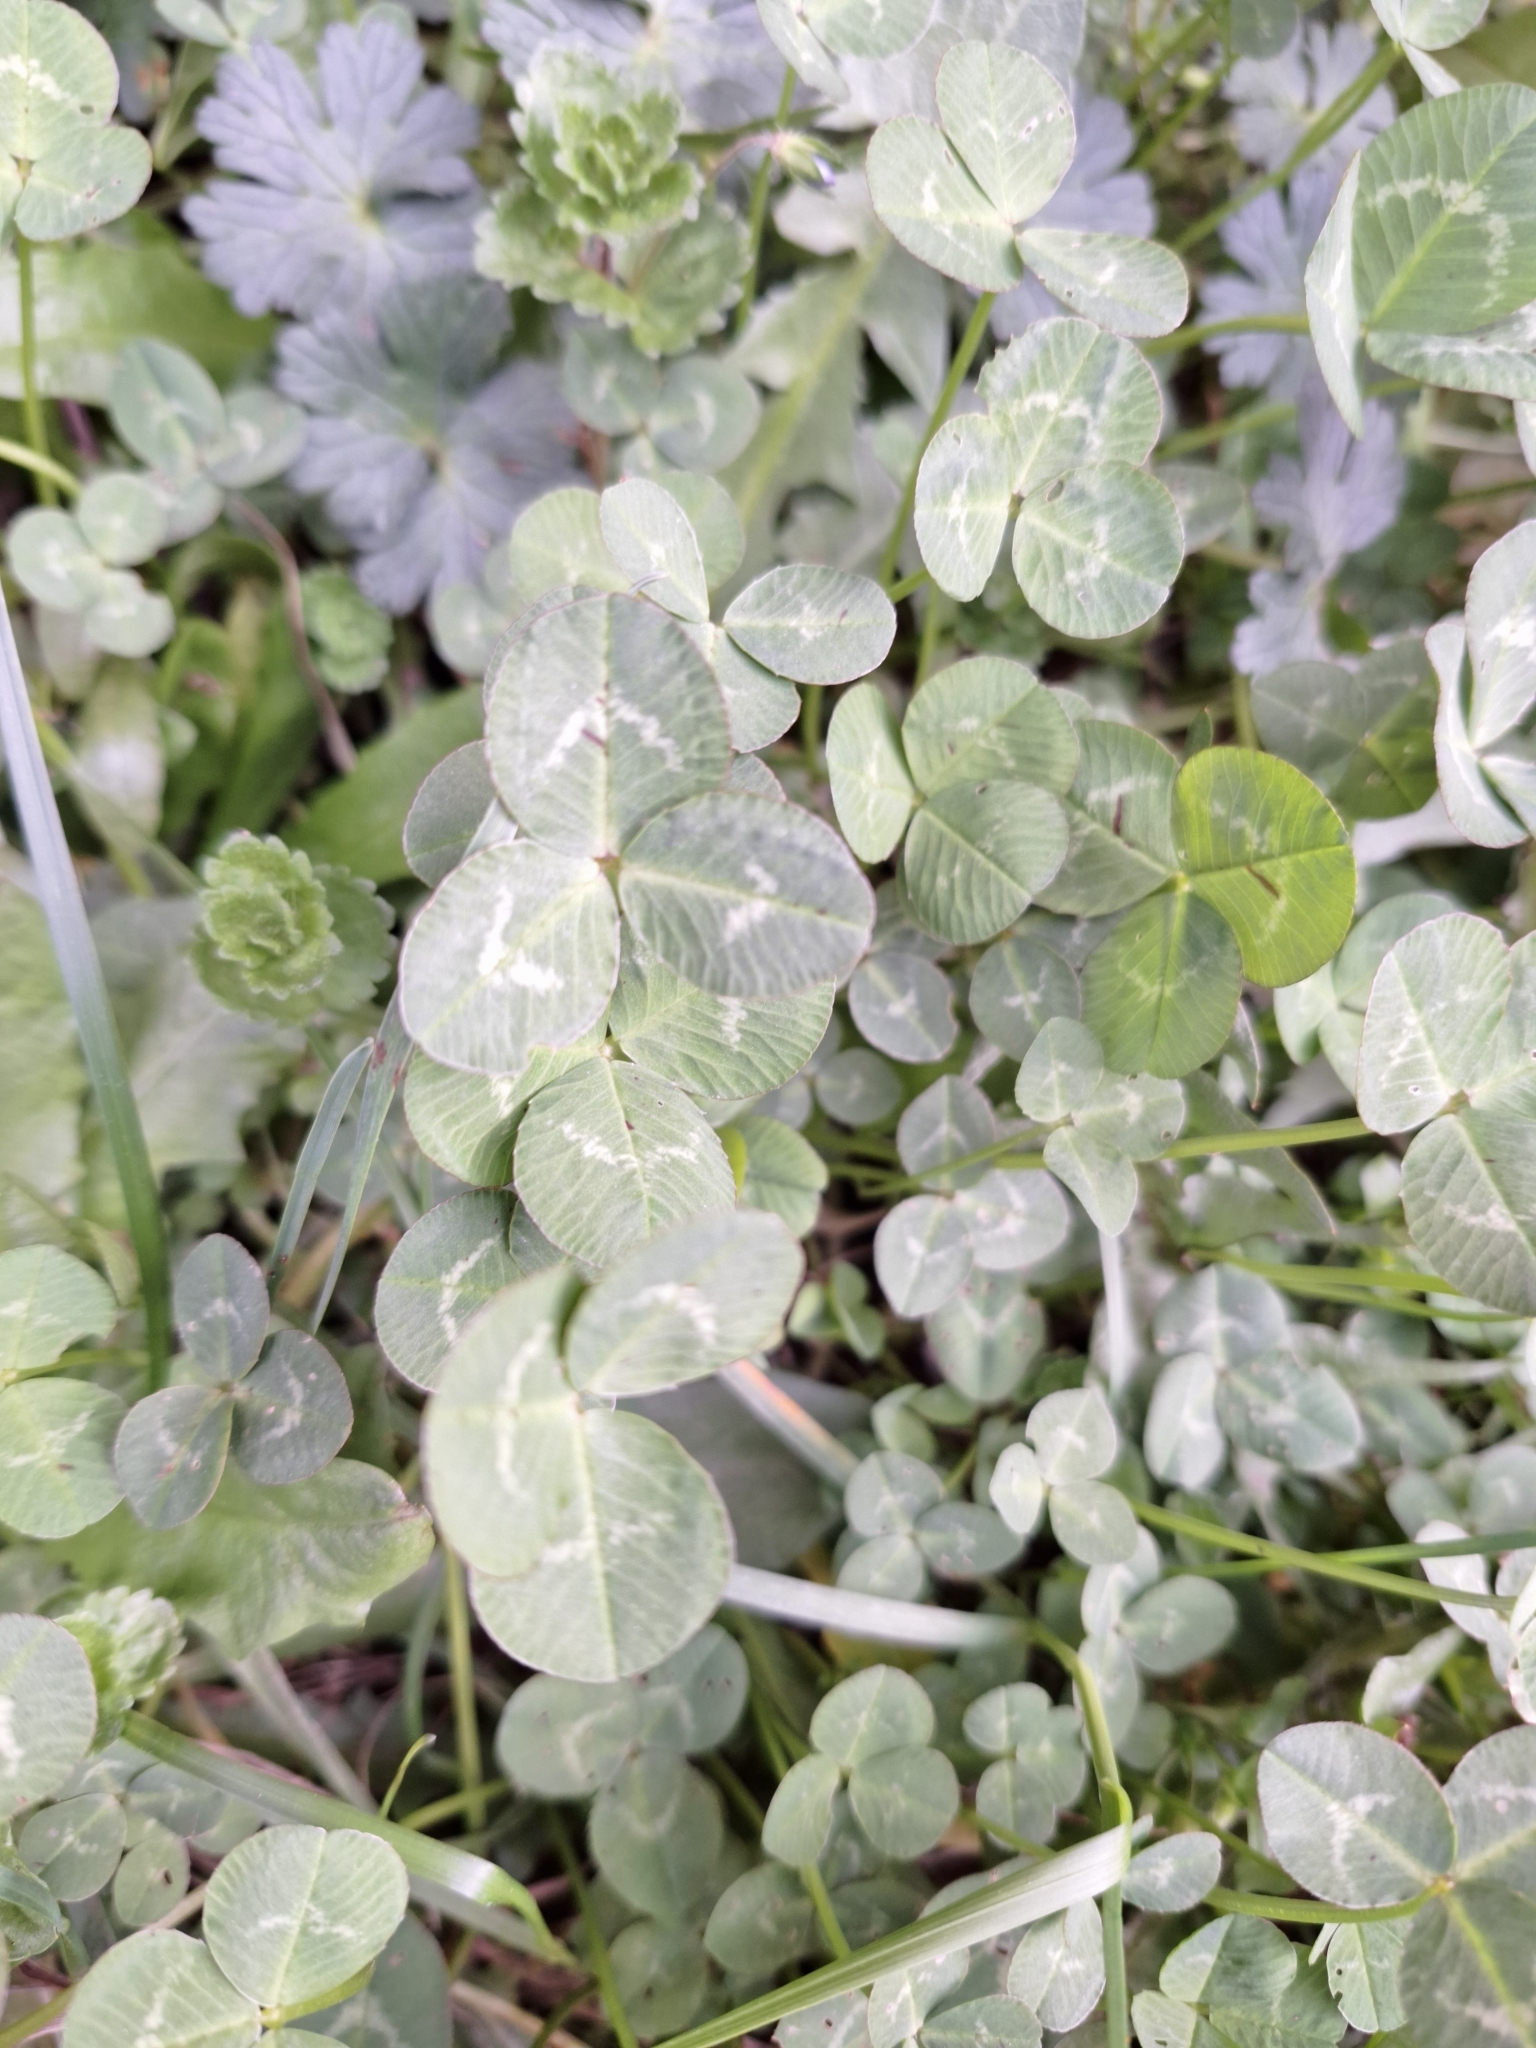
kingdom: Plantae
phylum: Tracheophyta
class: Magnoliopsida
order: Fabales
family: Fabaceae
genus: Trifolium
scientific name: Trifolium repens
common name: White clover
